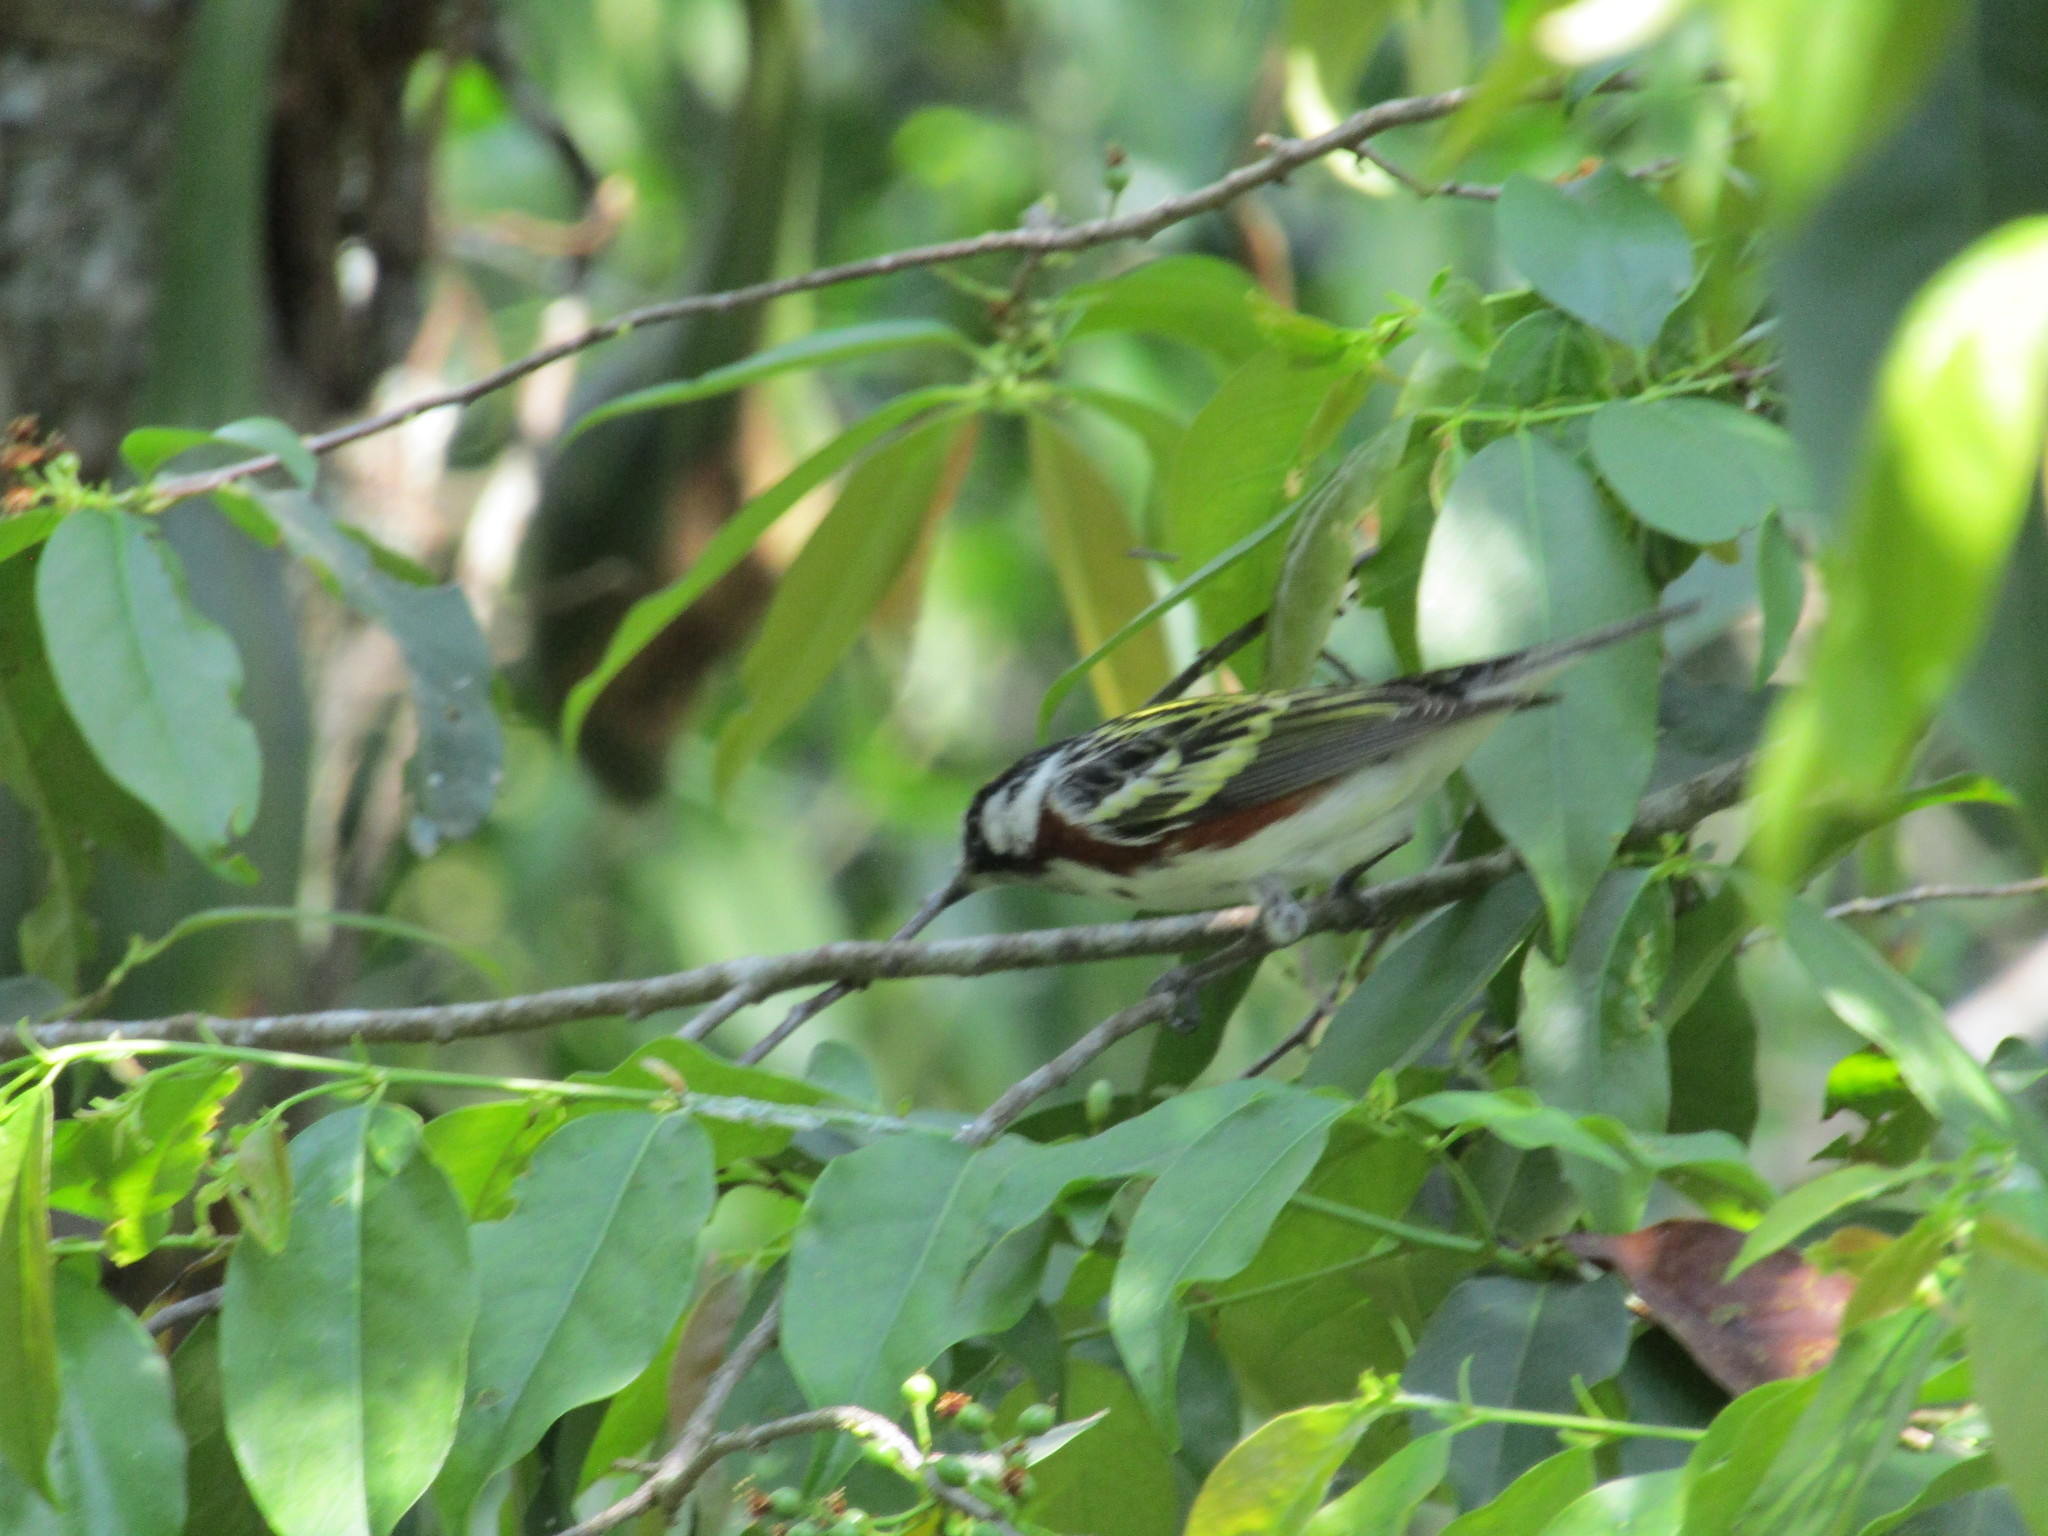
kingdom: Animalia
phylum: Chordata
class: Aves
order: Passeriformes
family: Parulidae
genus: Setophaga
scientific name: Setophaga pensylvanica
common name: Chestnut-sided warbler
